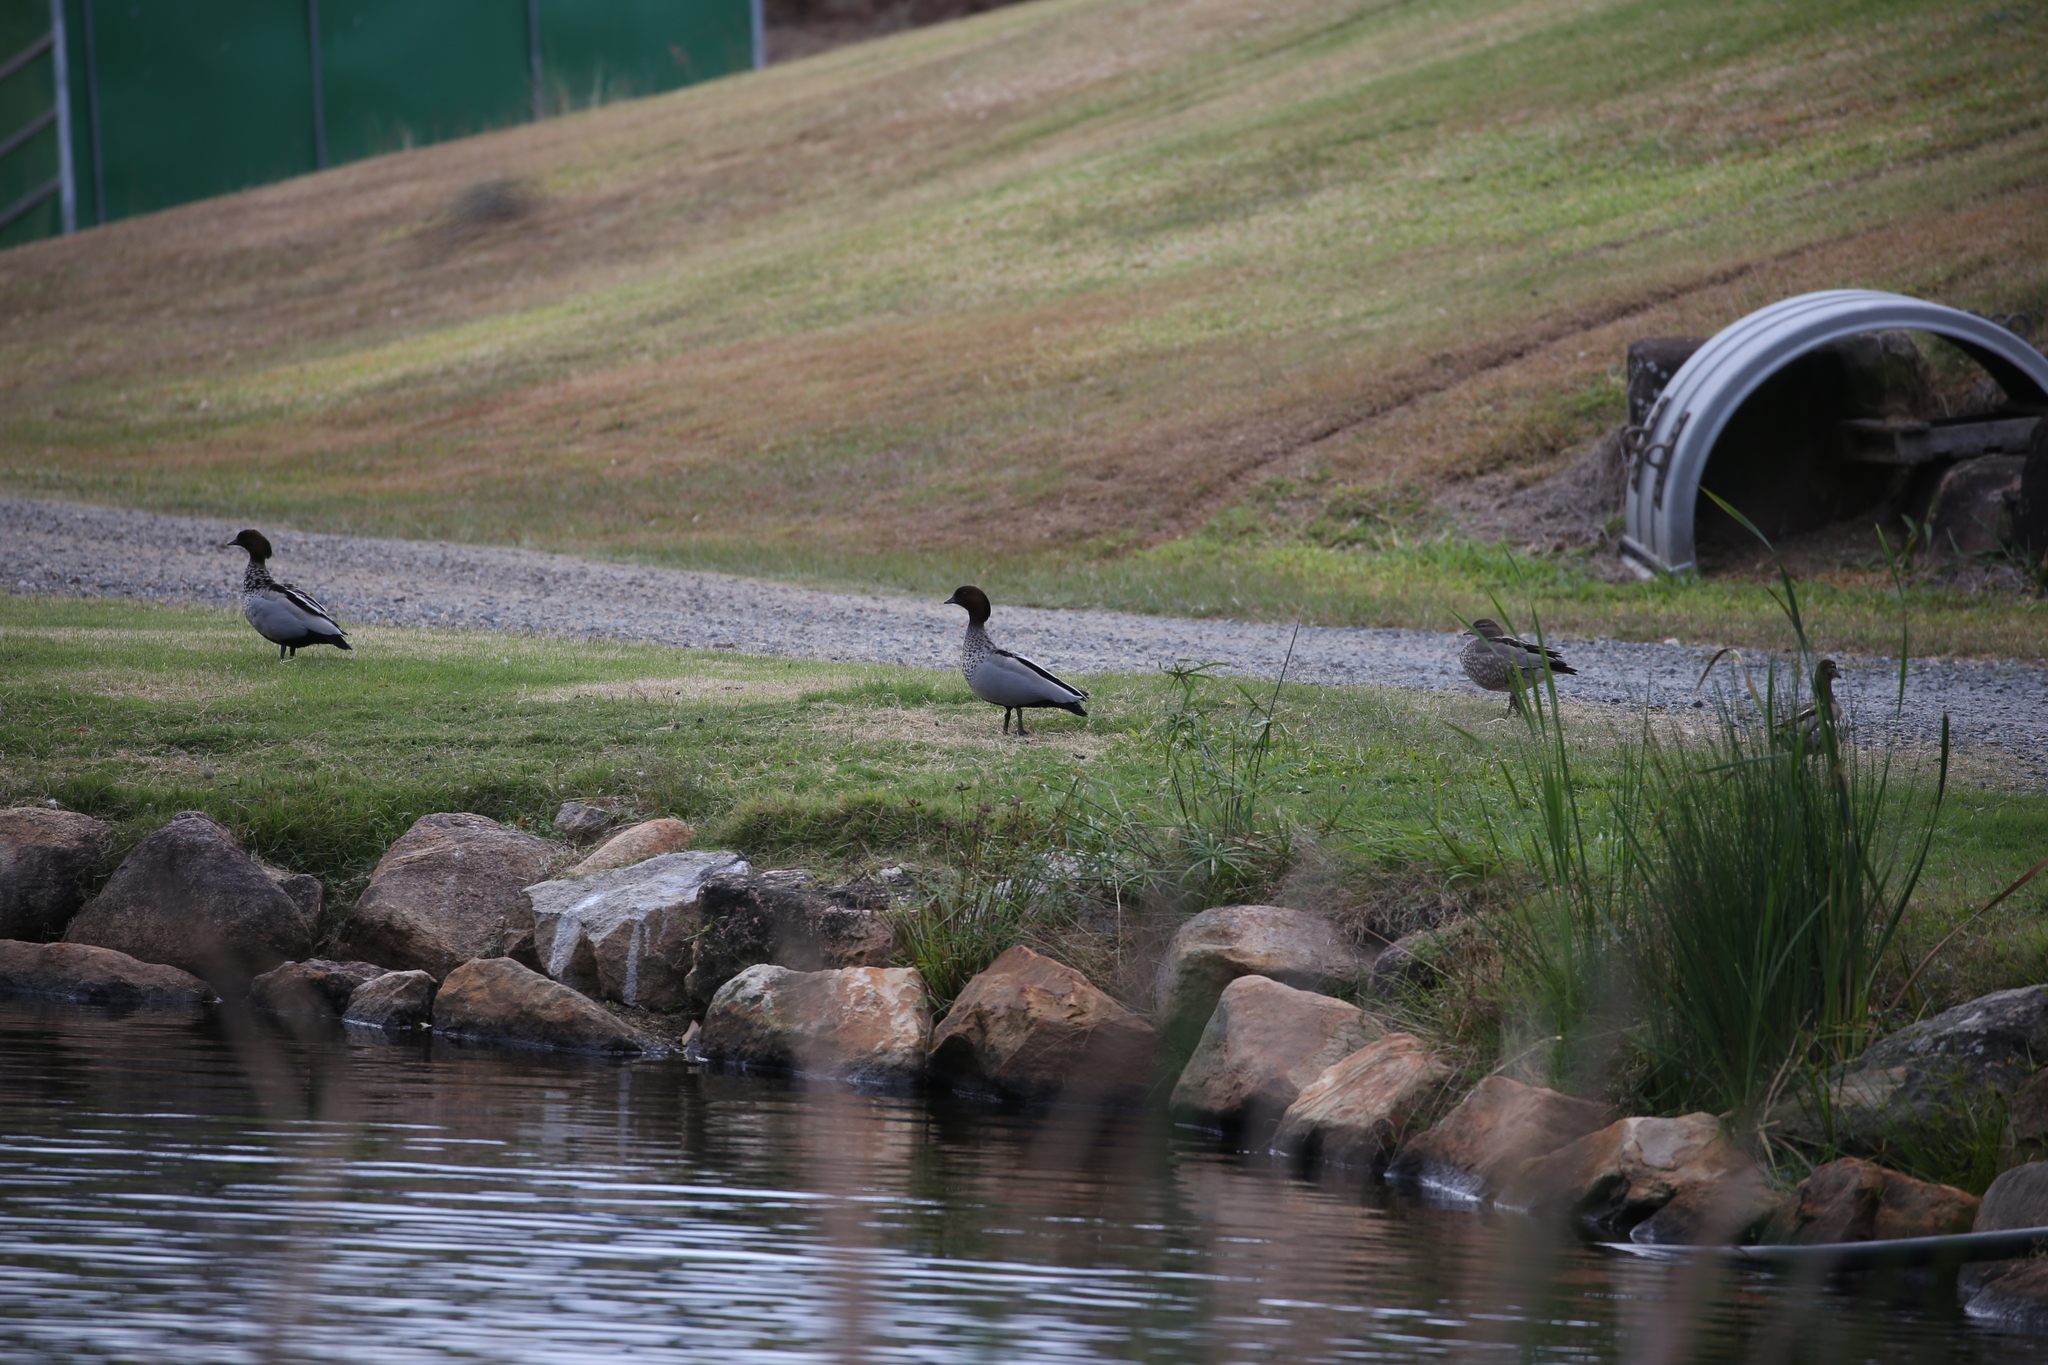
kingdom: Animalia
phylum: Chordata
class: Aves
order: Anseriformes
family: Anatidae
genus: Chenonetta
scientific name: Chenonetta jubata
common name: Maned duck
